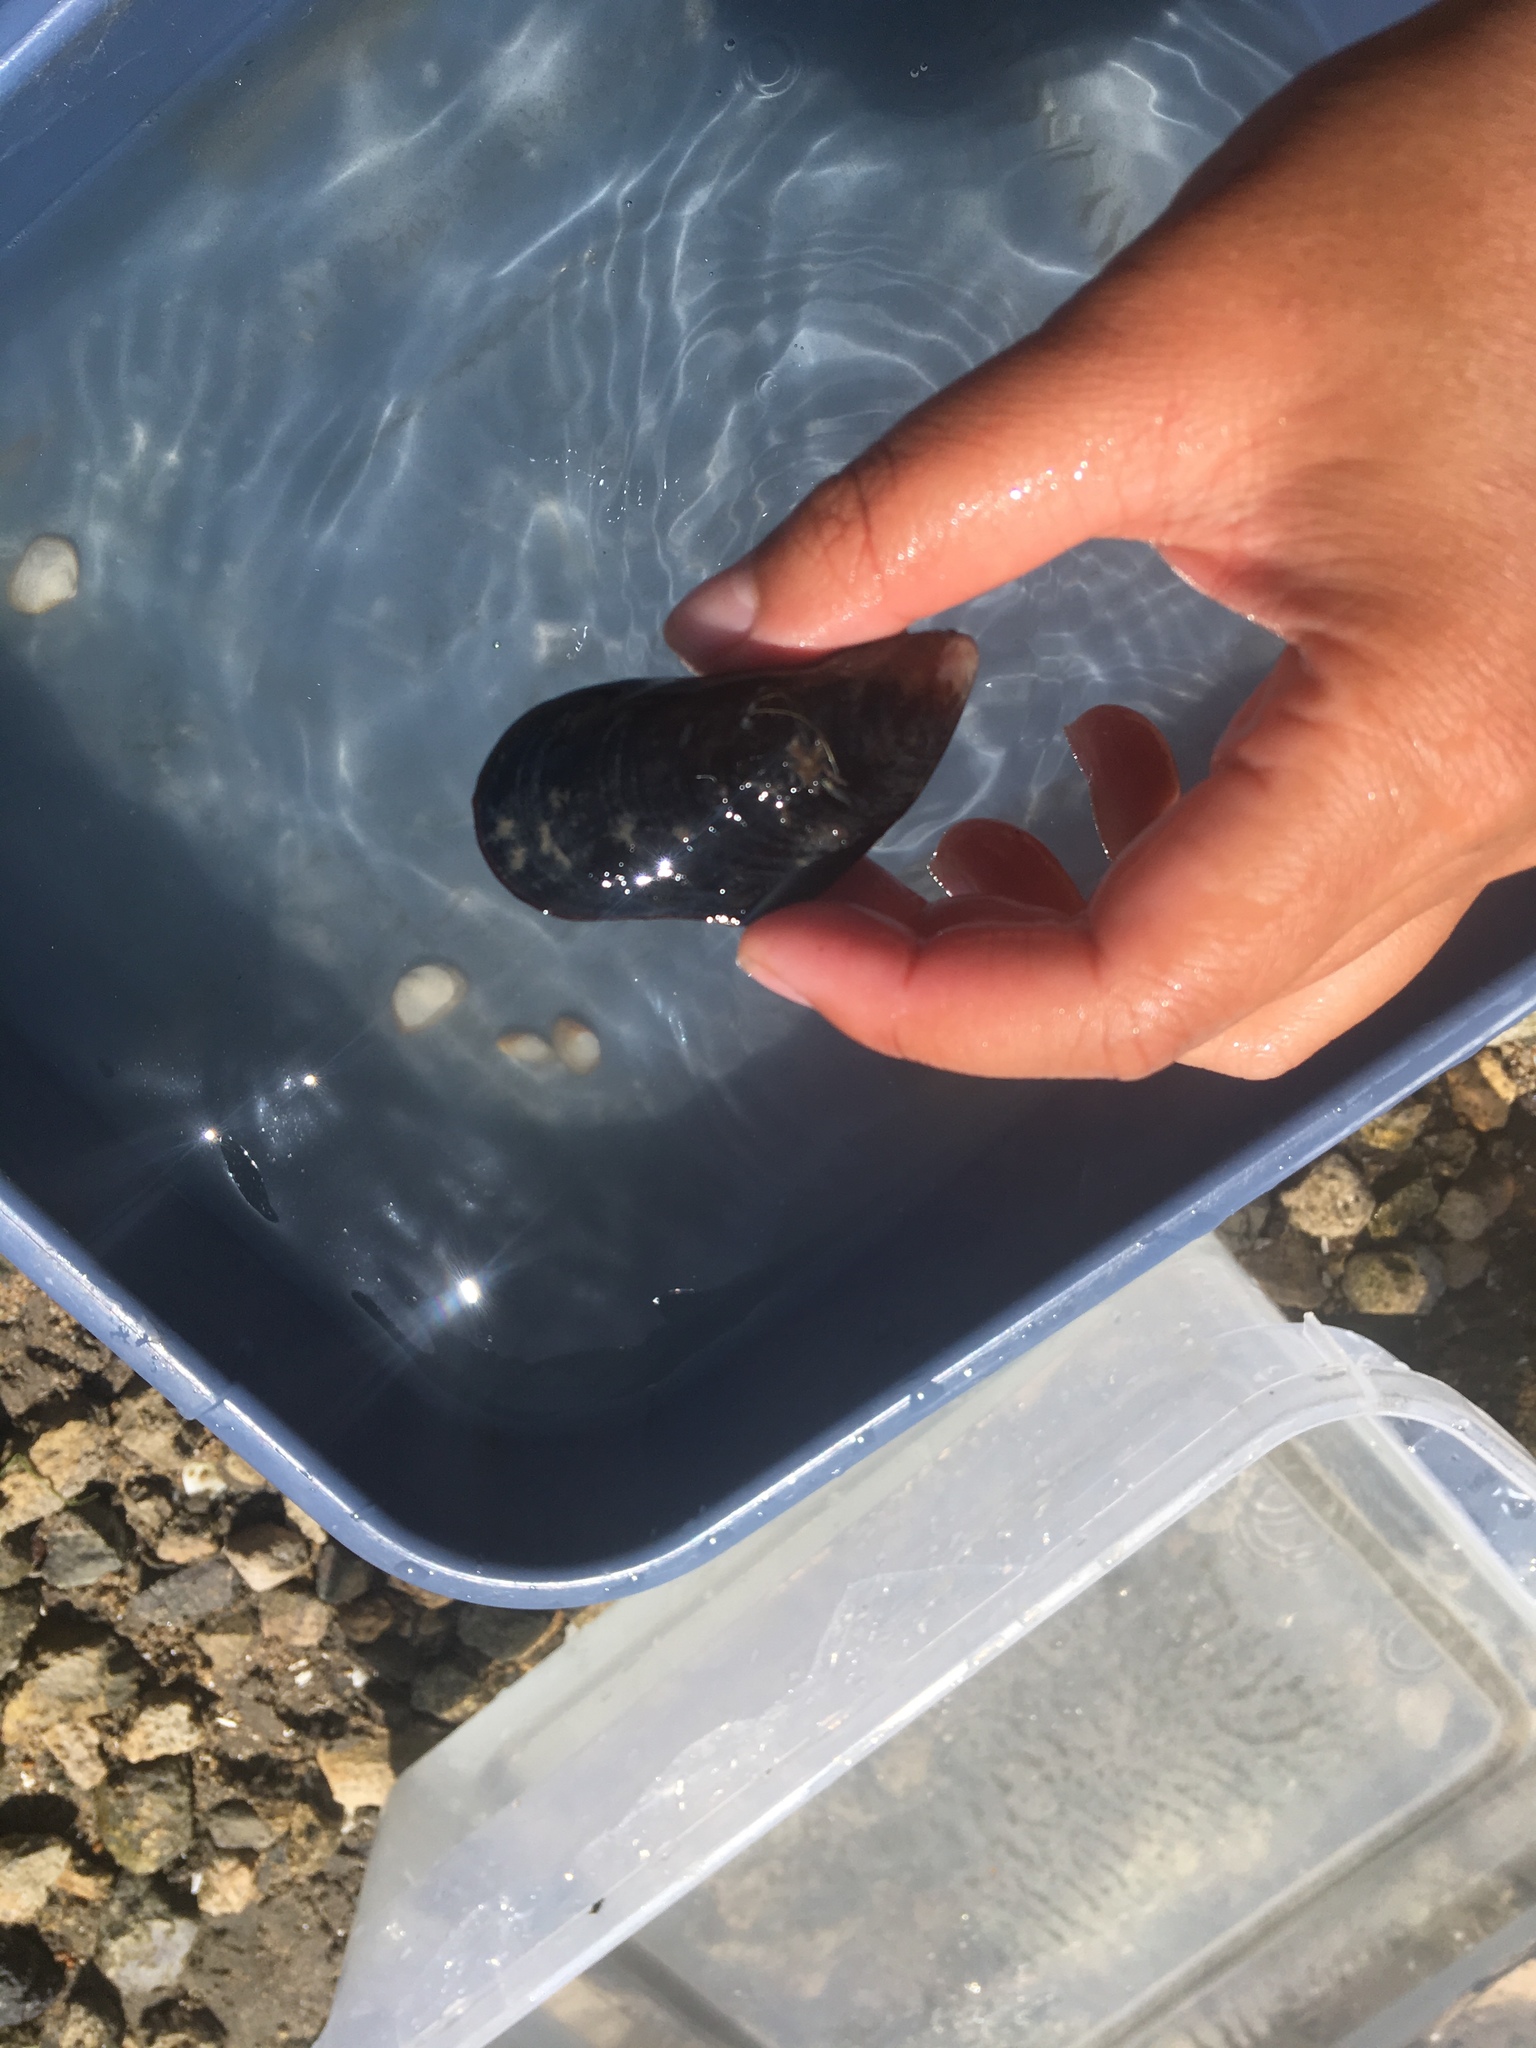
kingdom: Animalia
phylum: Mollusca
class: Bivalvia
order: Mytilida
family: Mytilidae
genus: Mytilus
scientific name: Mytilus californianus
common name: California mussel
